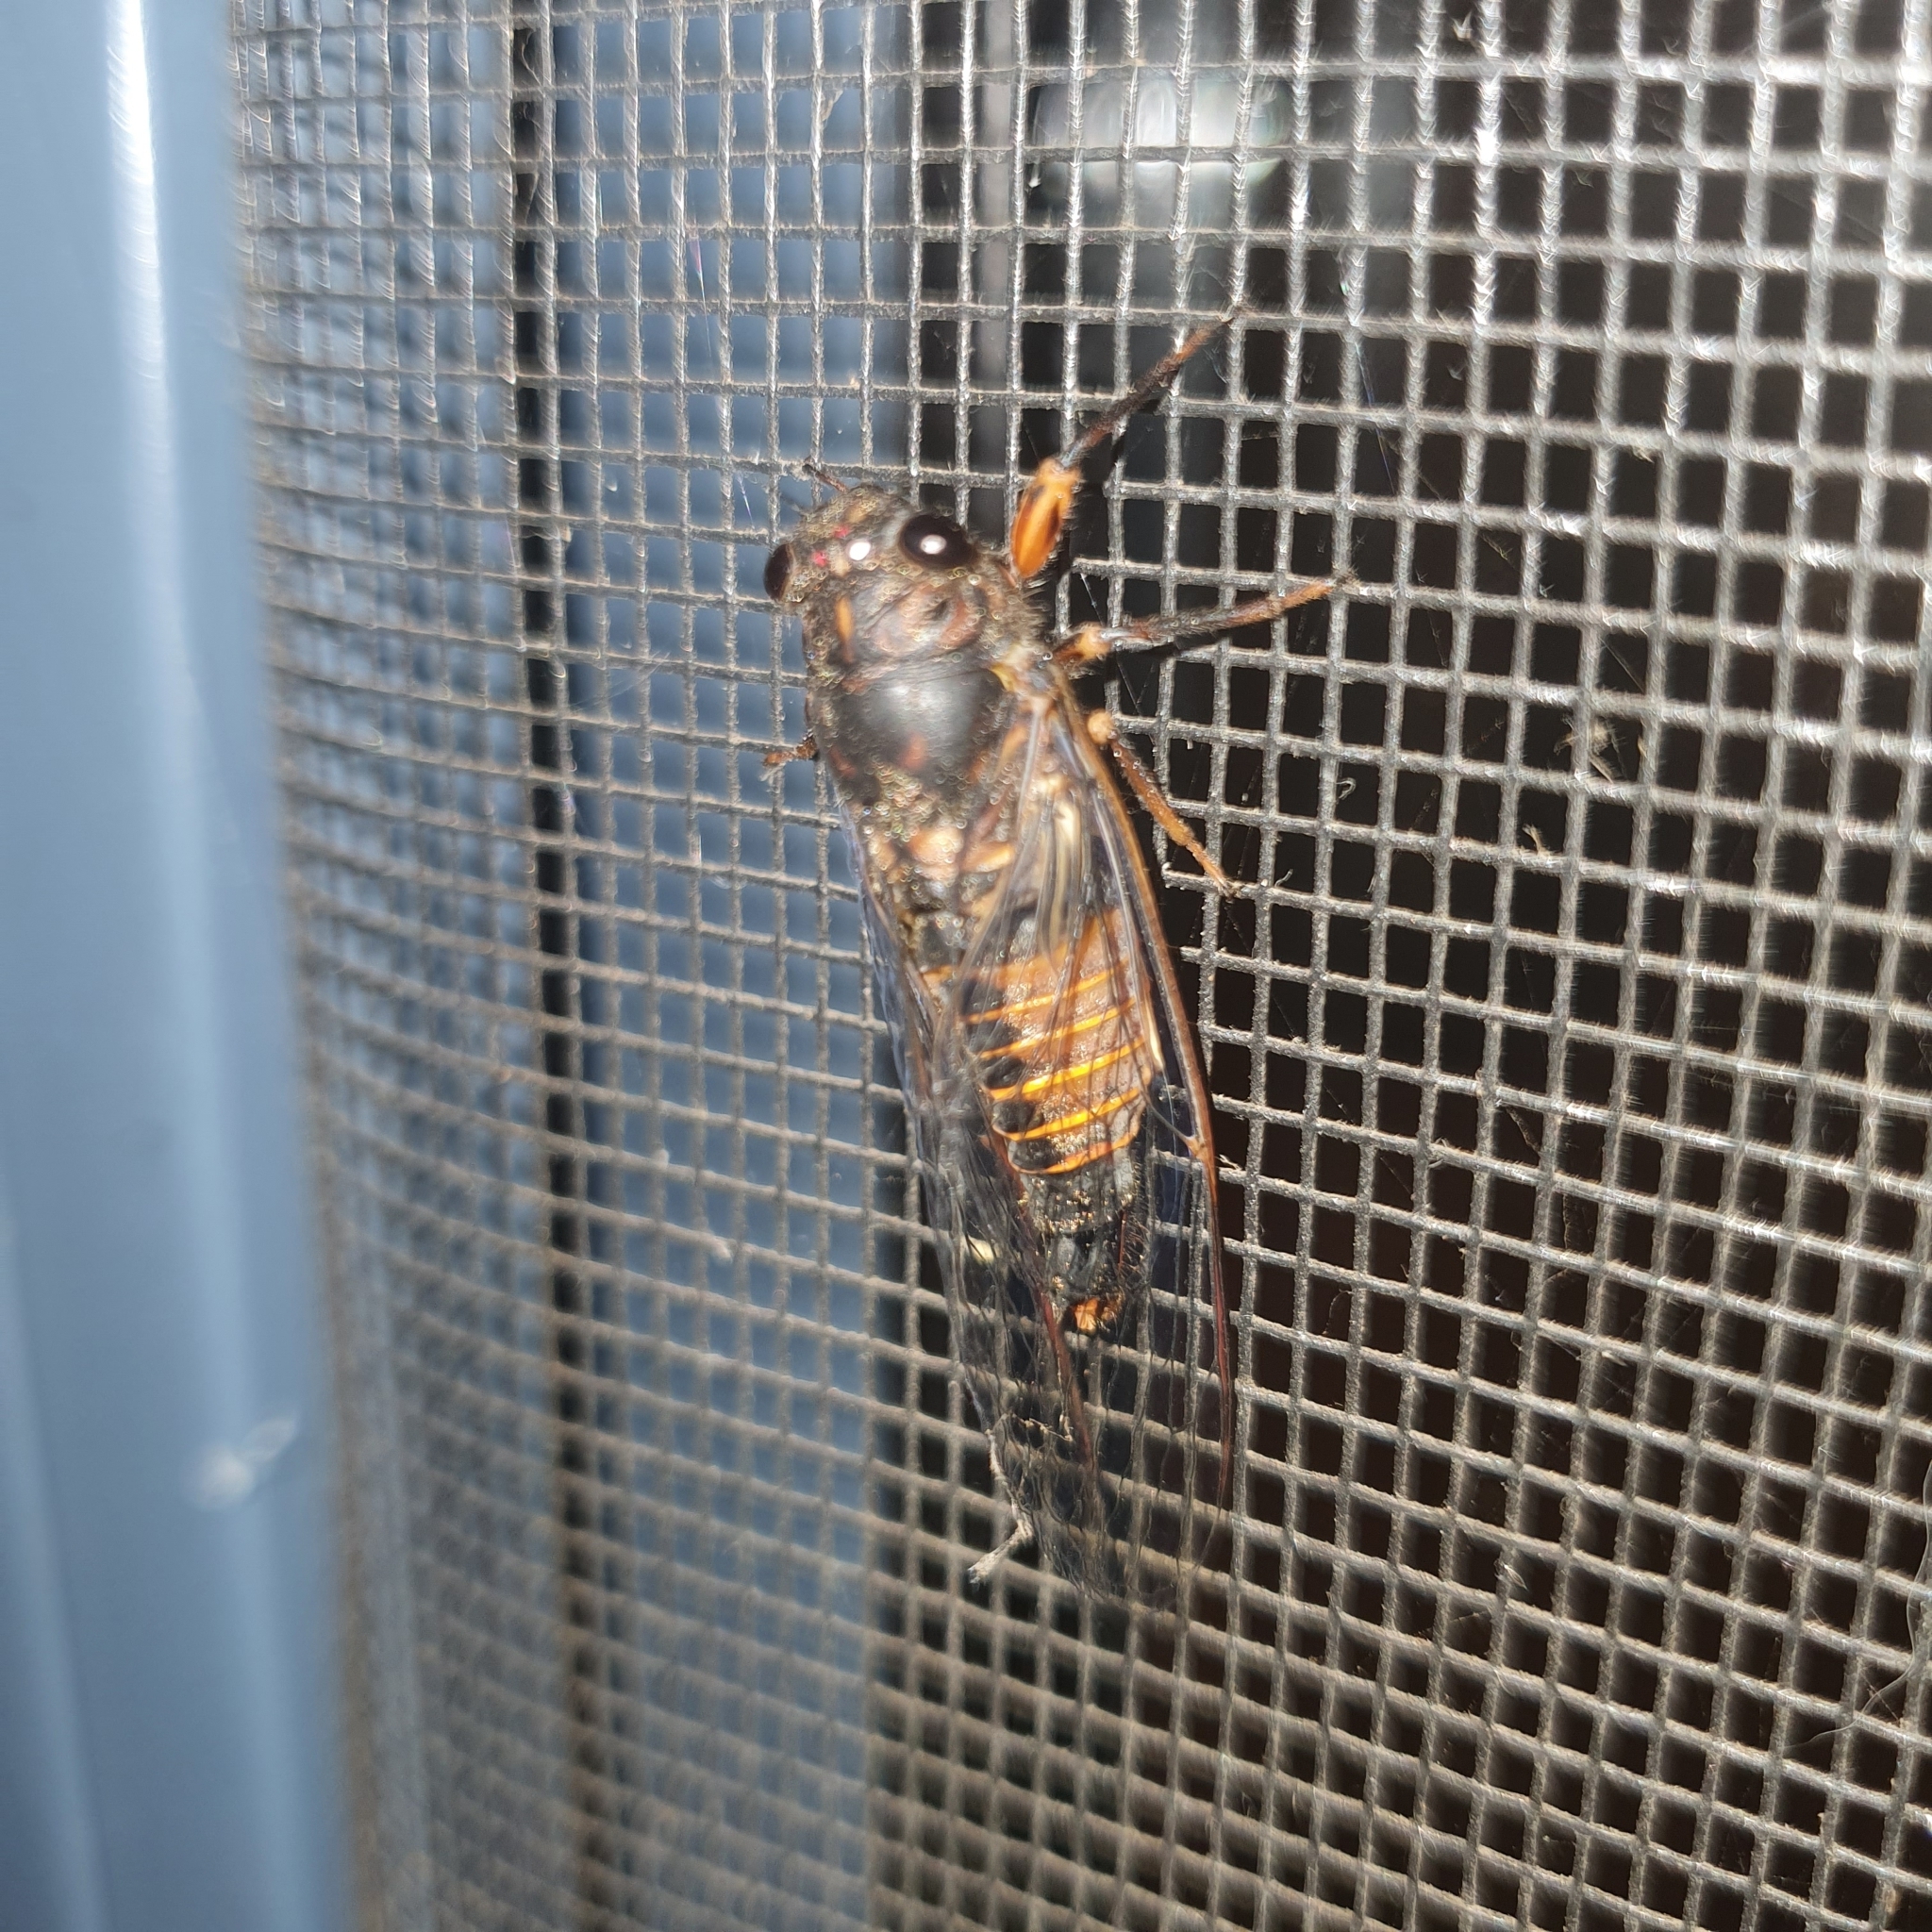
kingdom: Animalia
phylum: Arthropoda
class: Insecta
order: Hemiptera
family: Cicadidae
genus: Yoyetta
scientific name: Yoyetta robertsonae
